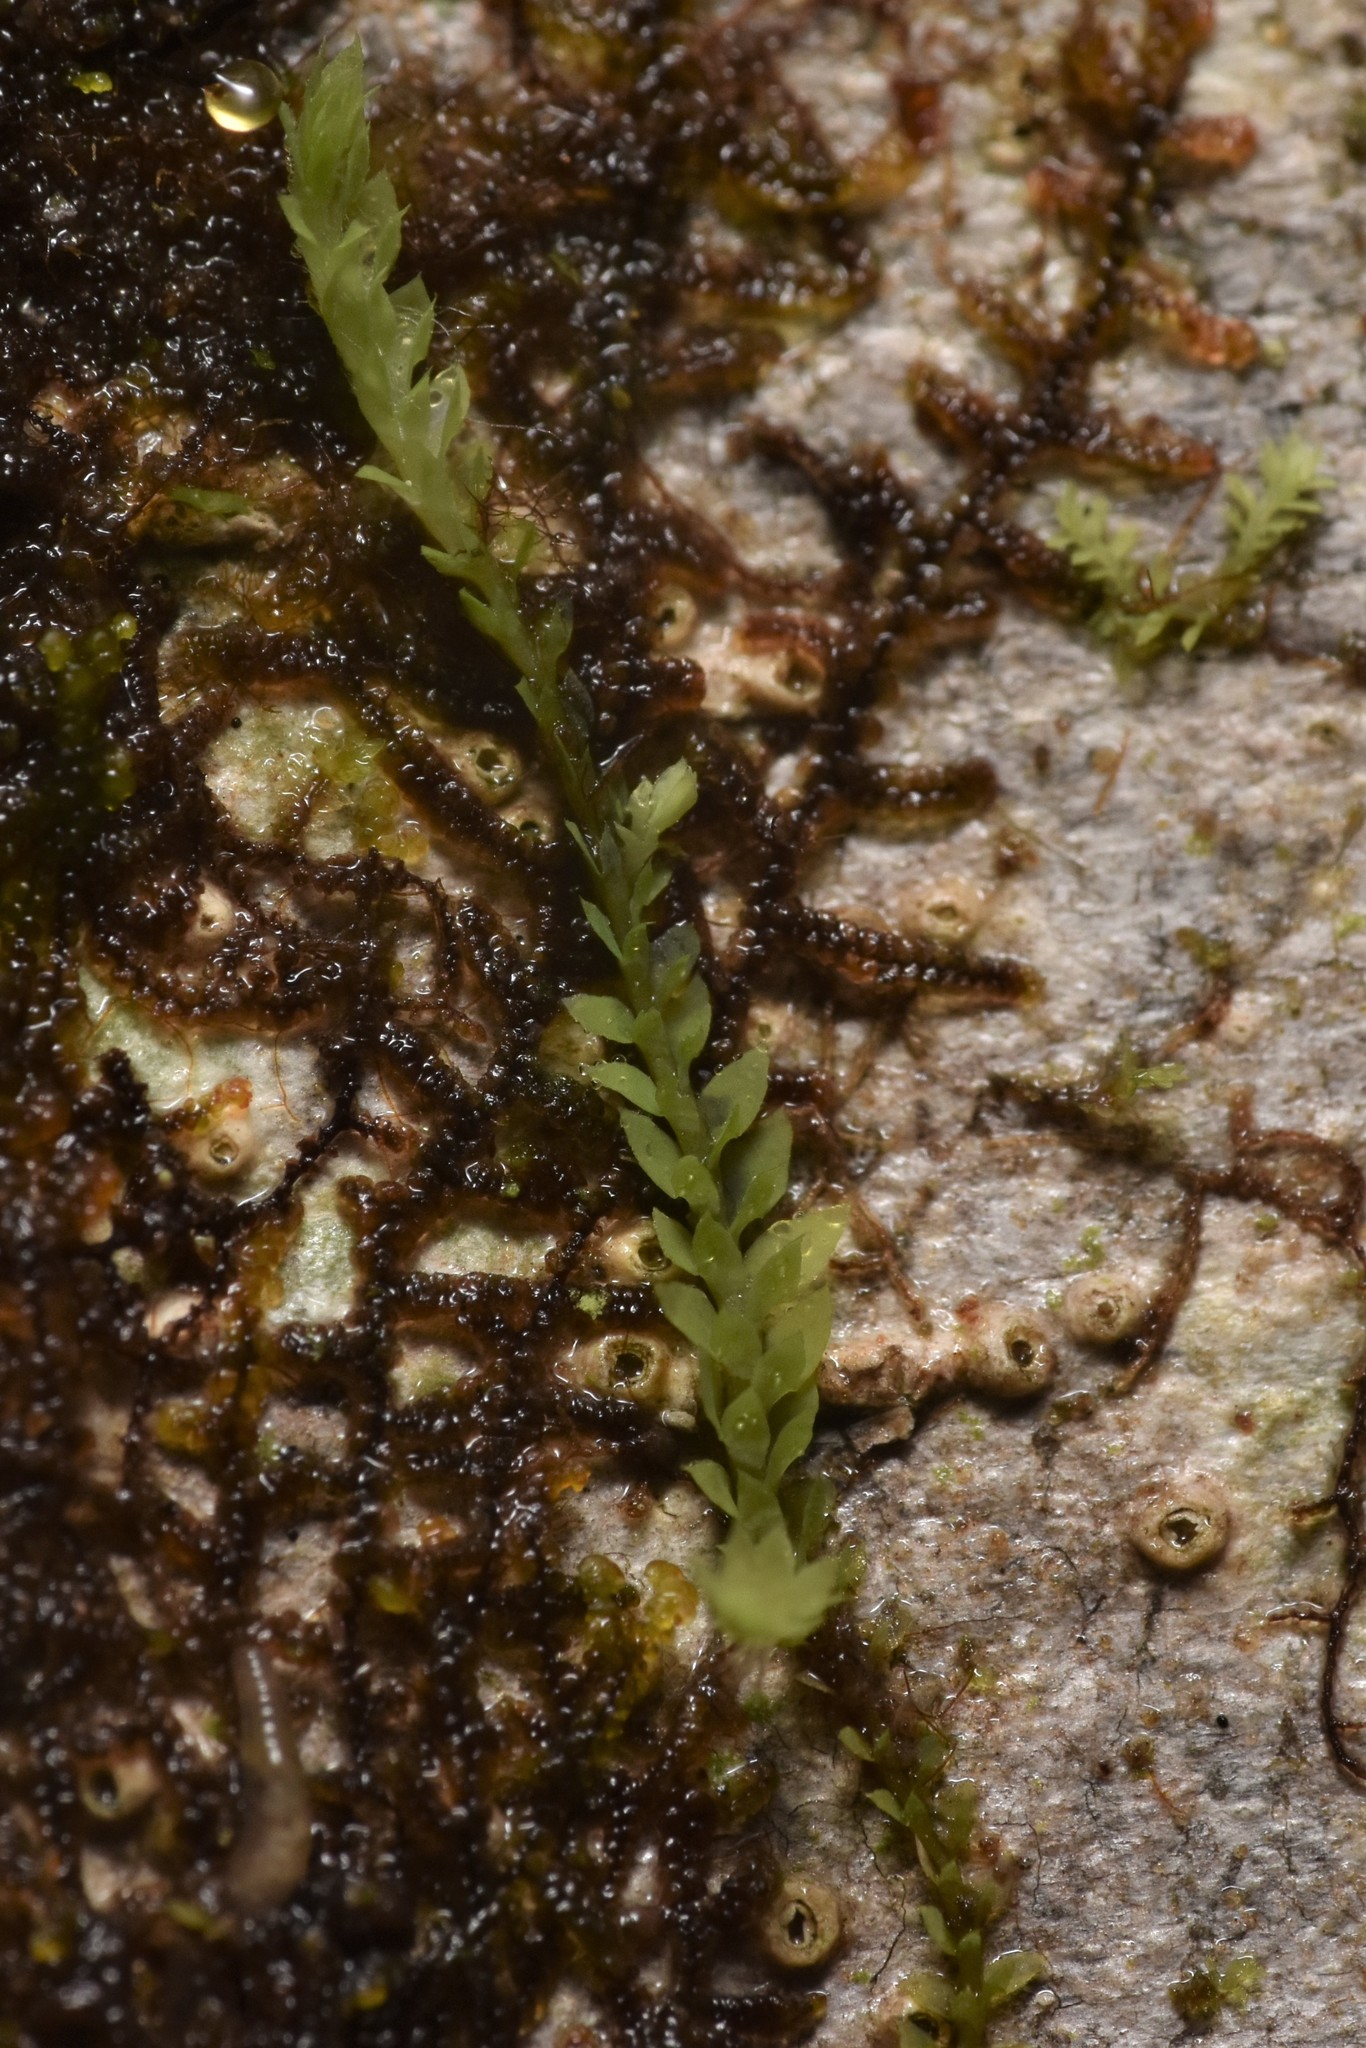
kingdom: Plantae
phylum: Marchantiophyta
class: Jungermanniopsida
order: Jungermanniales
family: Scapaniaceae
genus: Douinia
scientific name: Douinia ovata
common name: Waxy earwort
